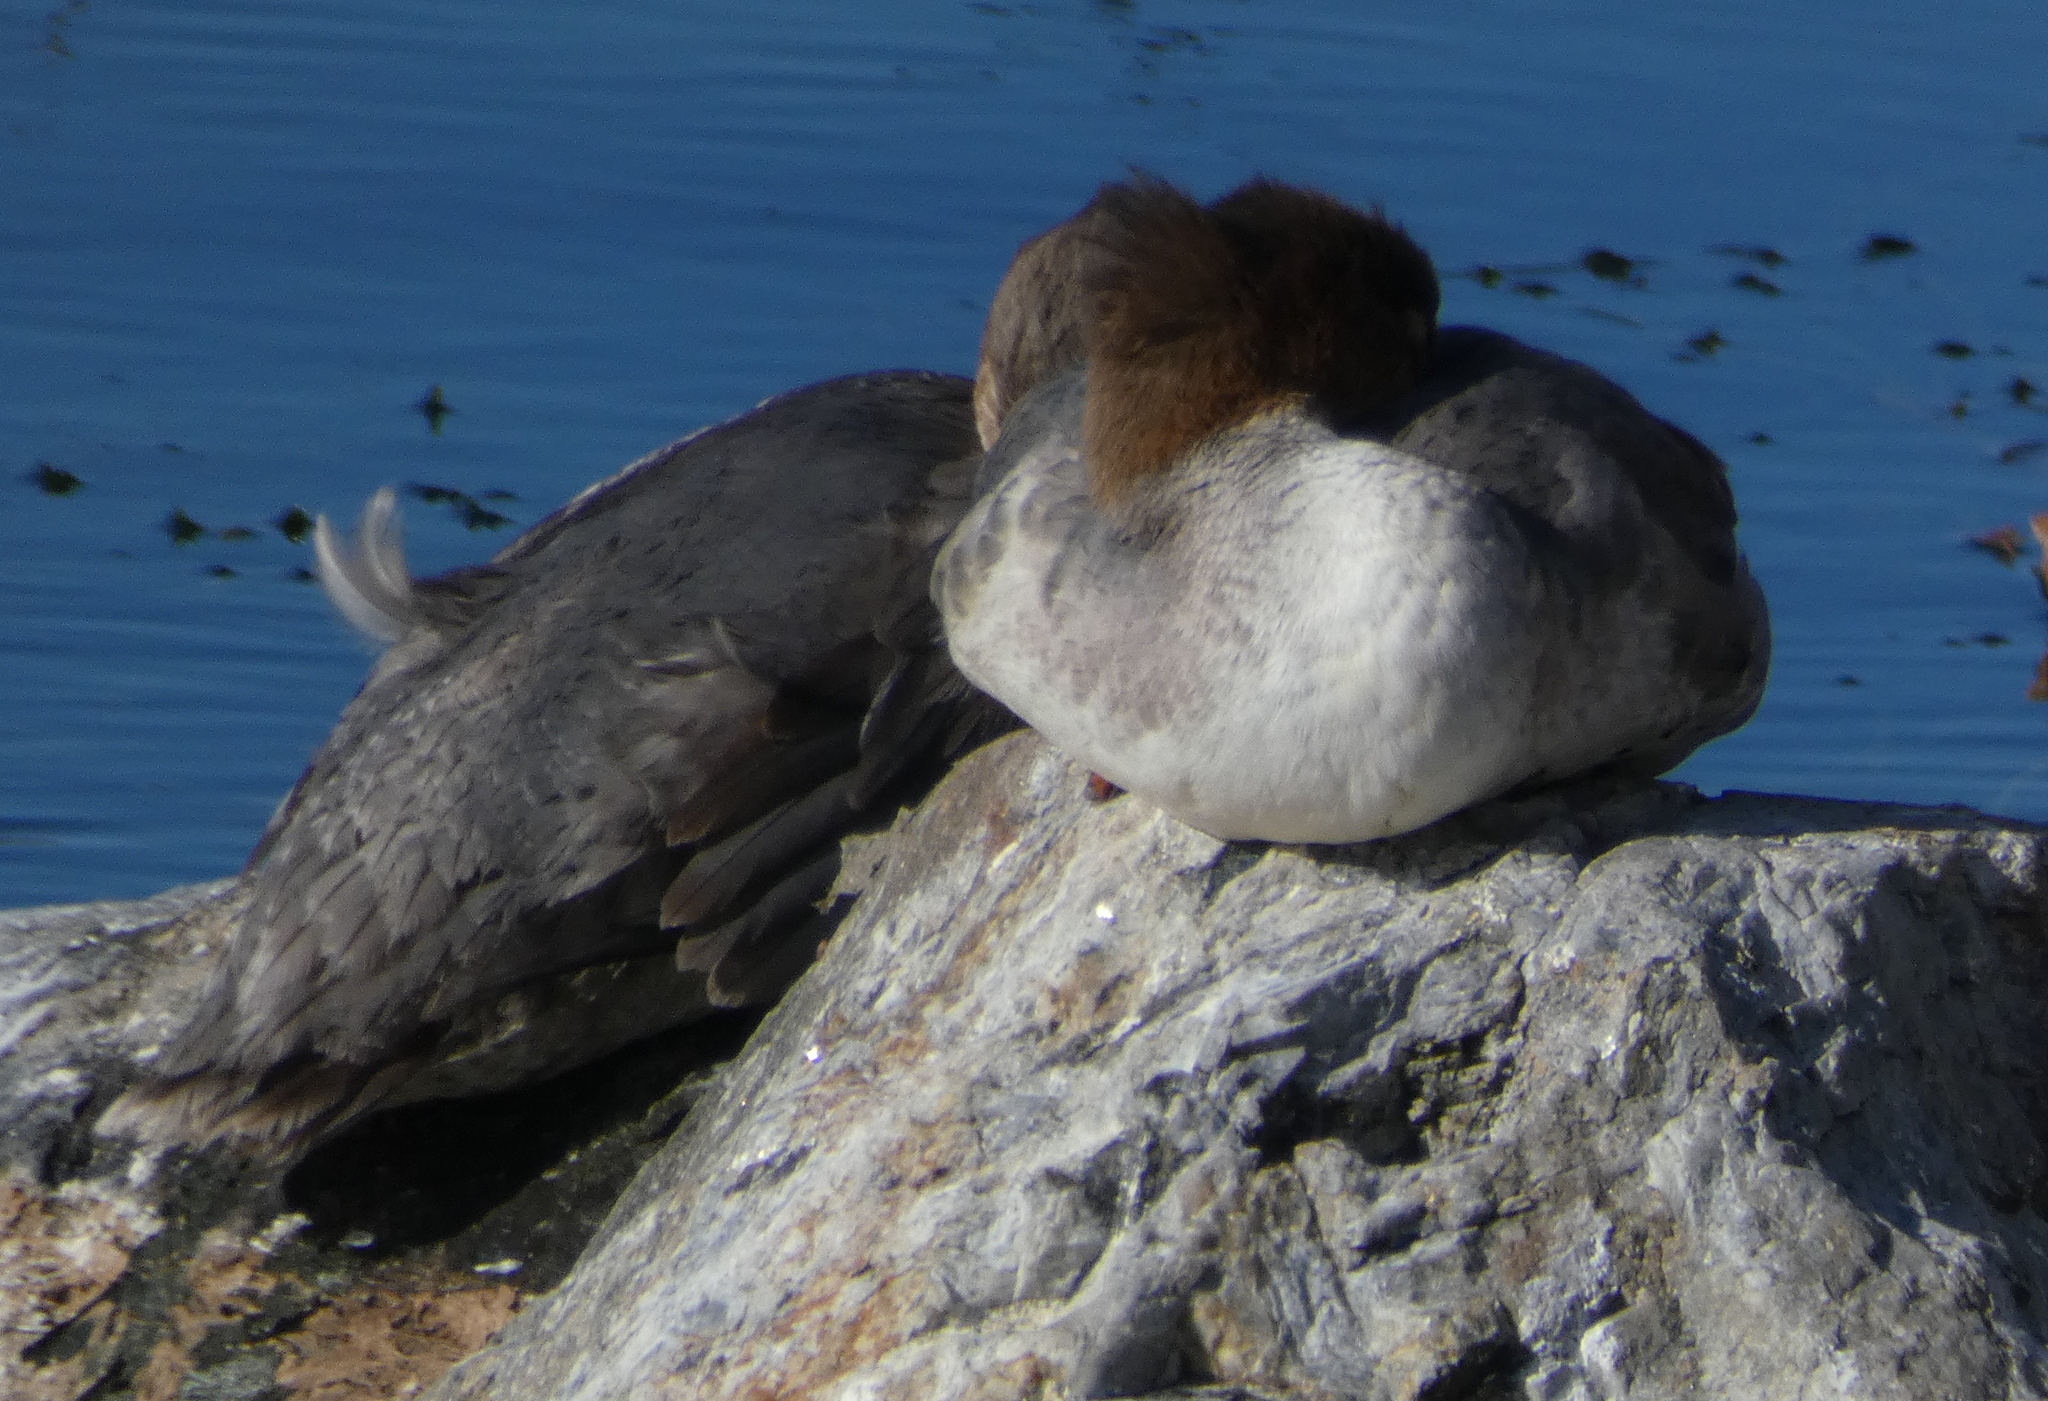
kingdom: Animalia
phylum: Chordata
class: Aves
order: Anseriformes
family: Anatidae
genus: Mergus
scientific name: Mergus merganser
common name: Common merganser
